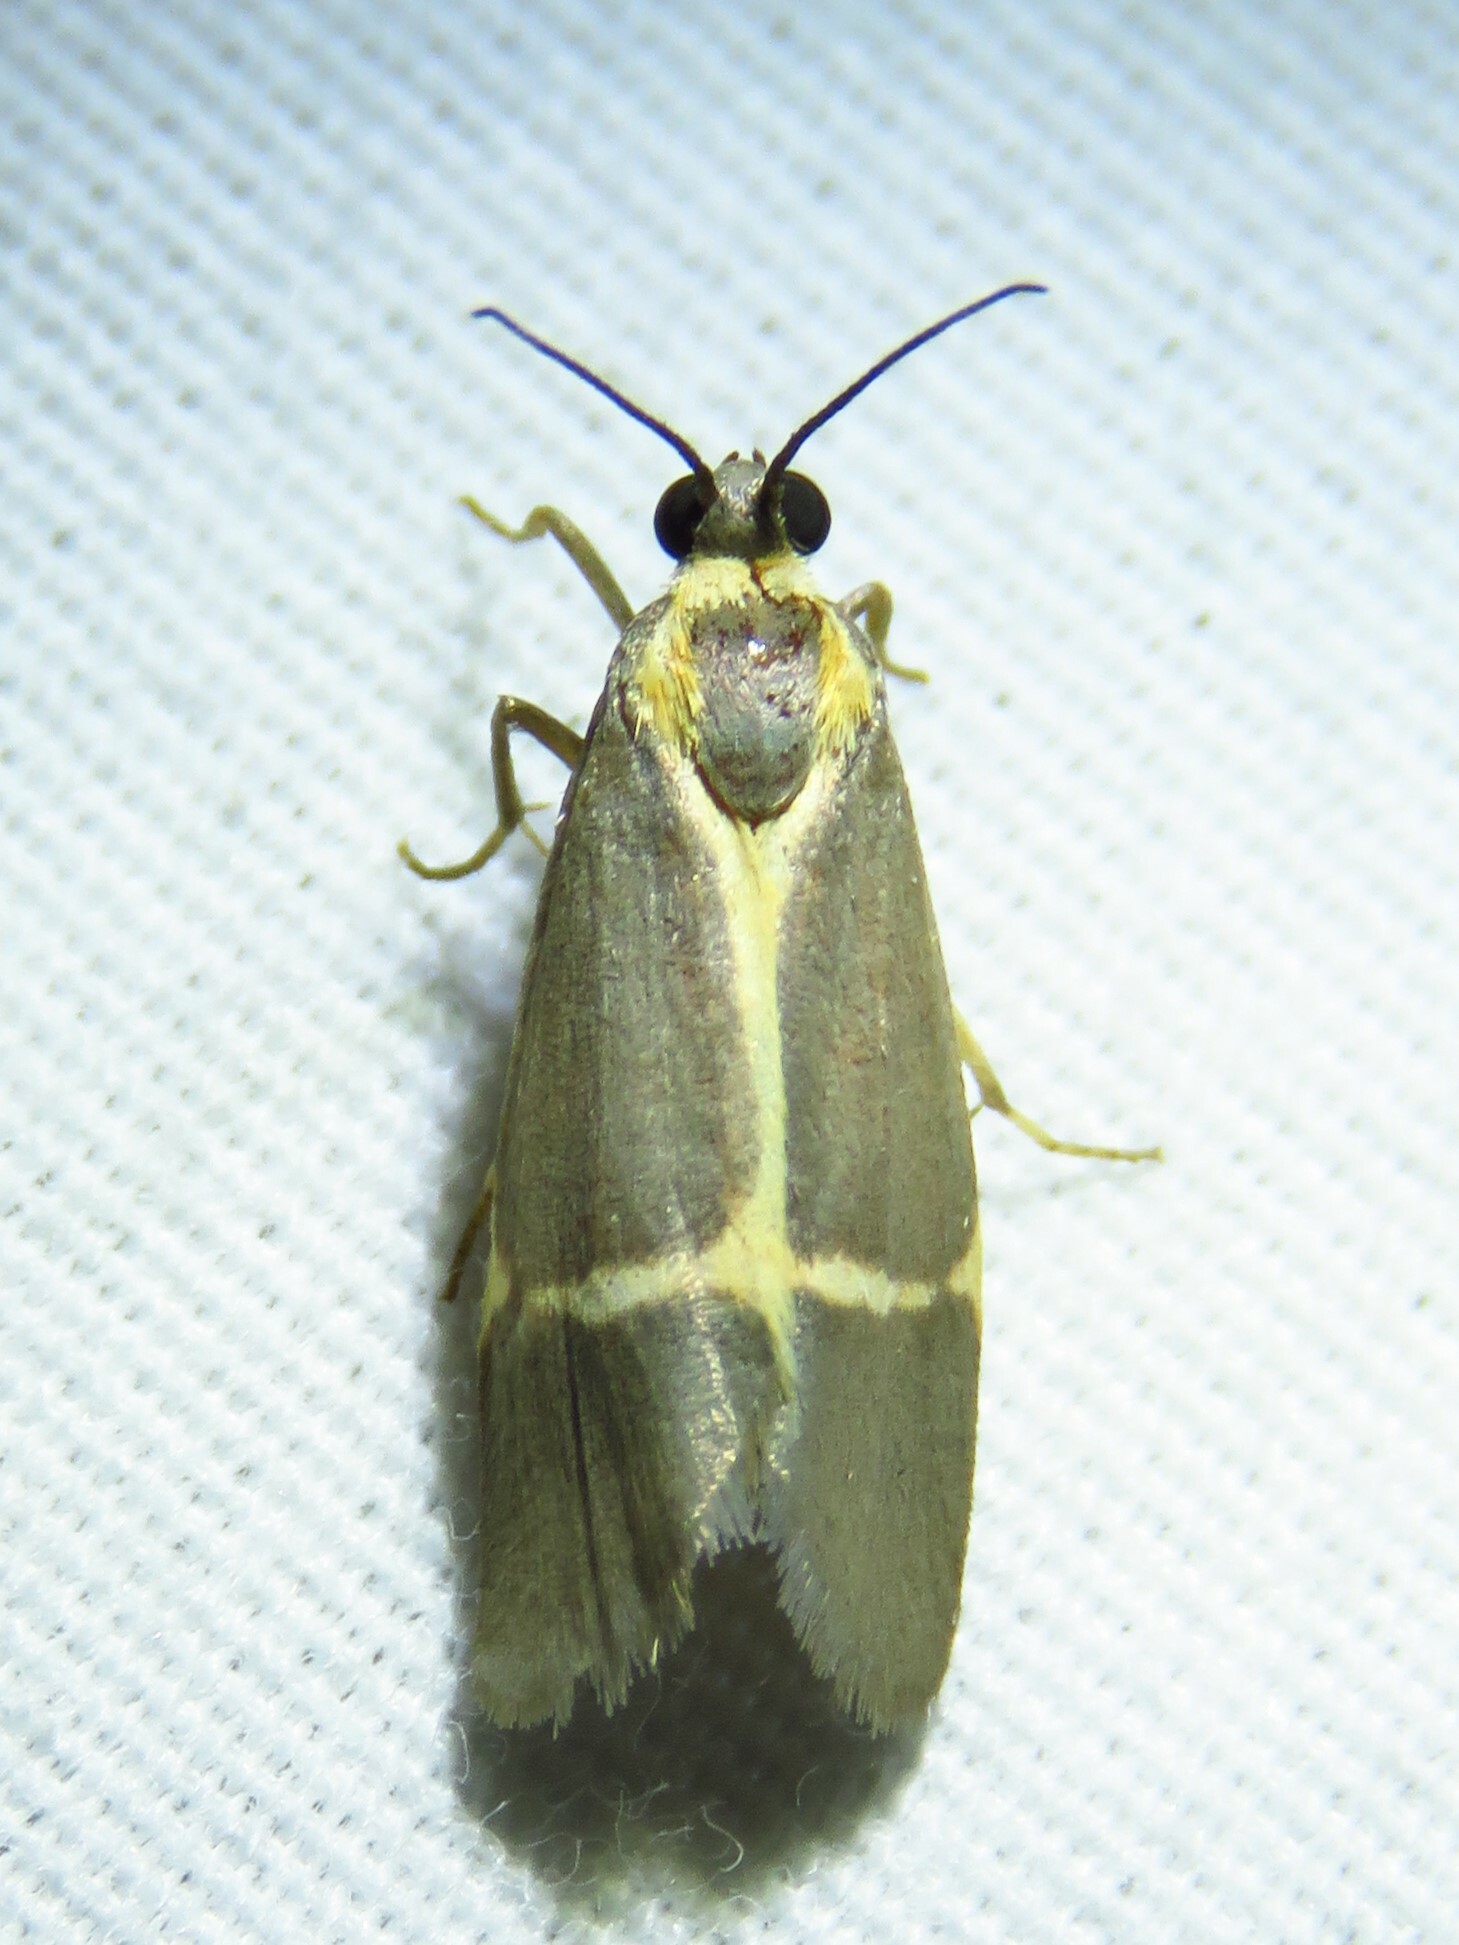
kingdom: Animalia
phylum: Arthropoda
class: Insecta
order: Lepidoptera
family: Erebidae
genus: Cisthene
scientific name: Cisthene barnesii
